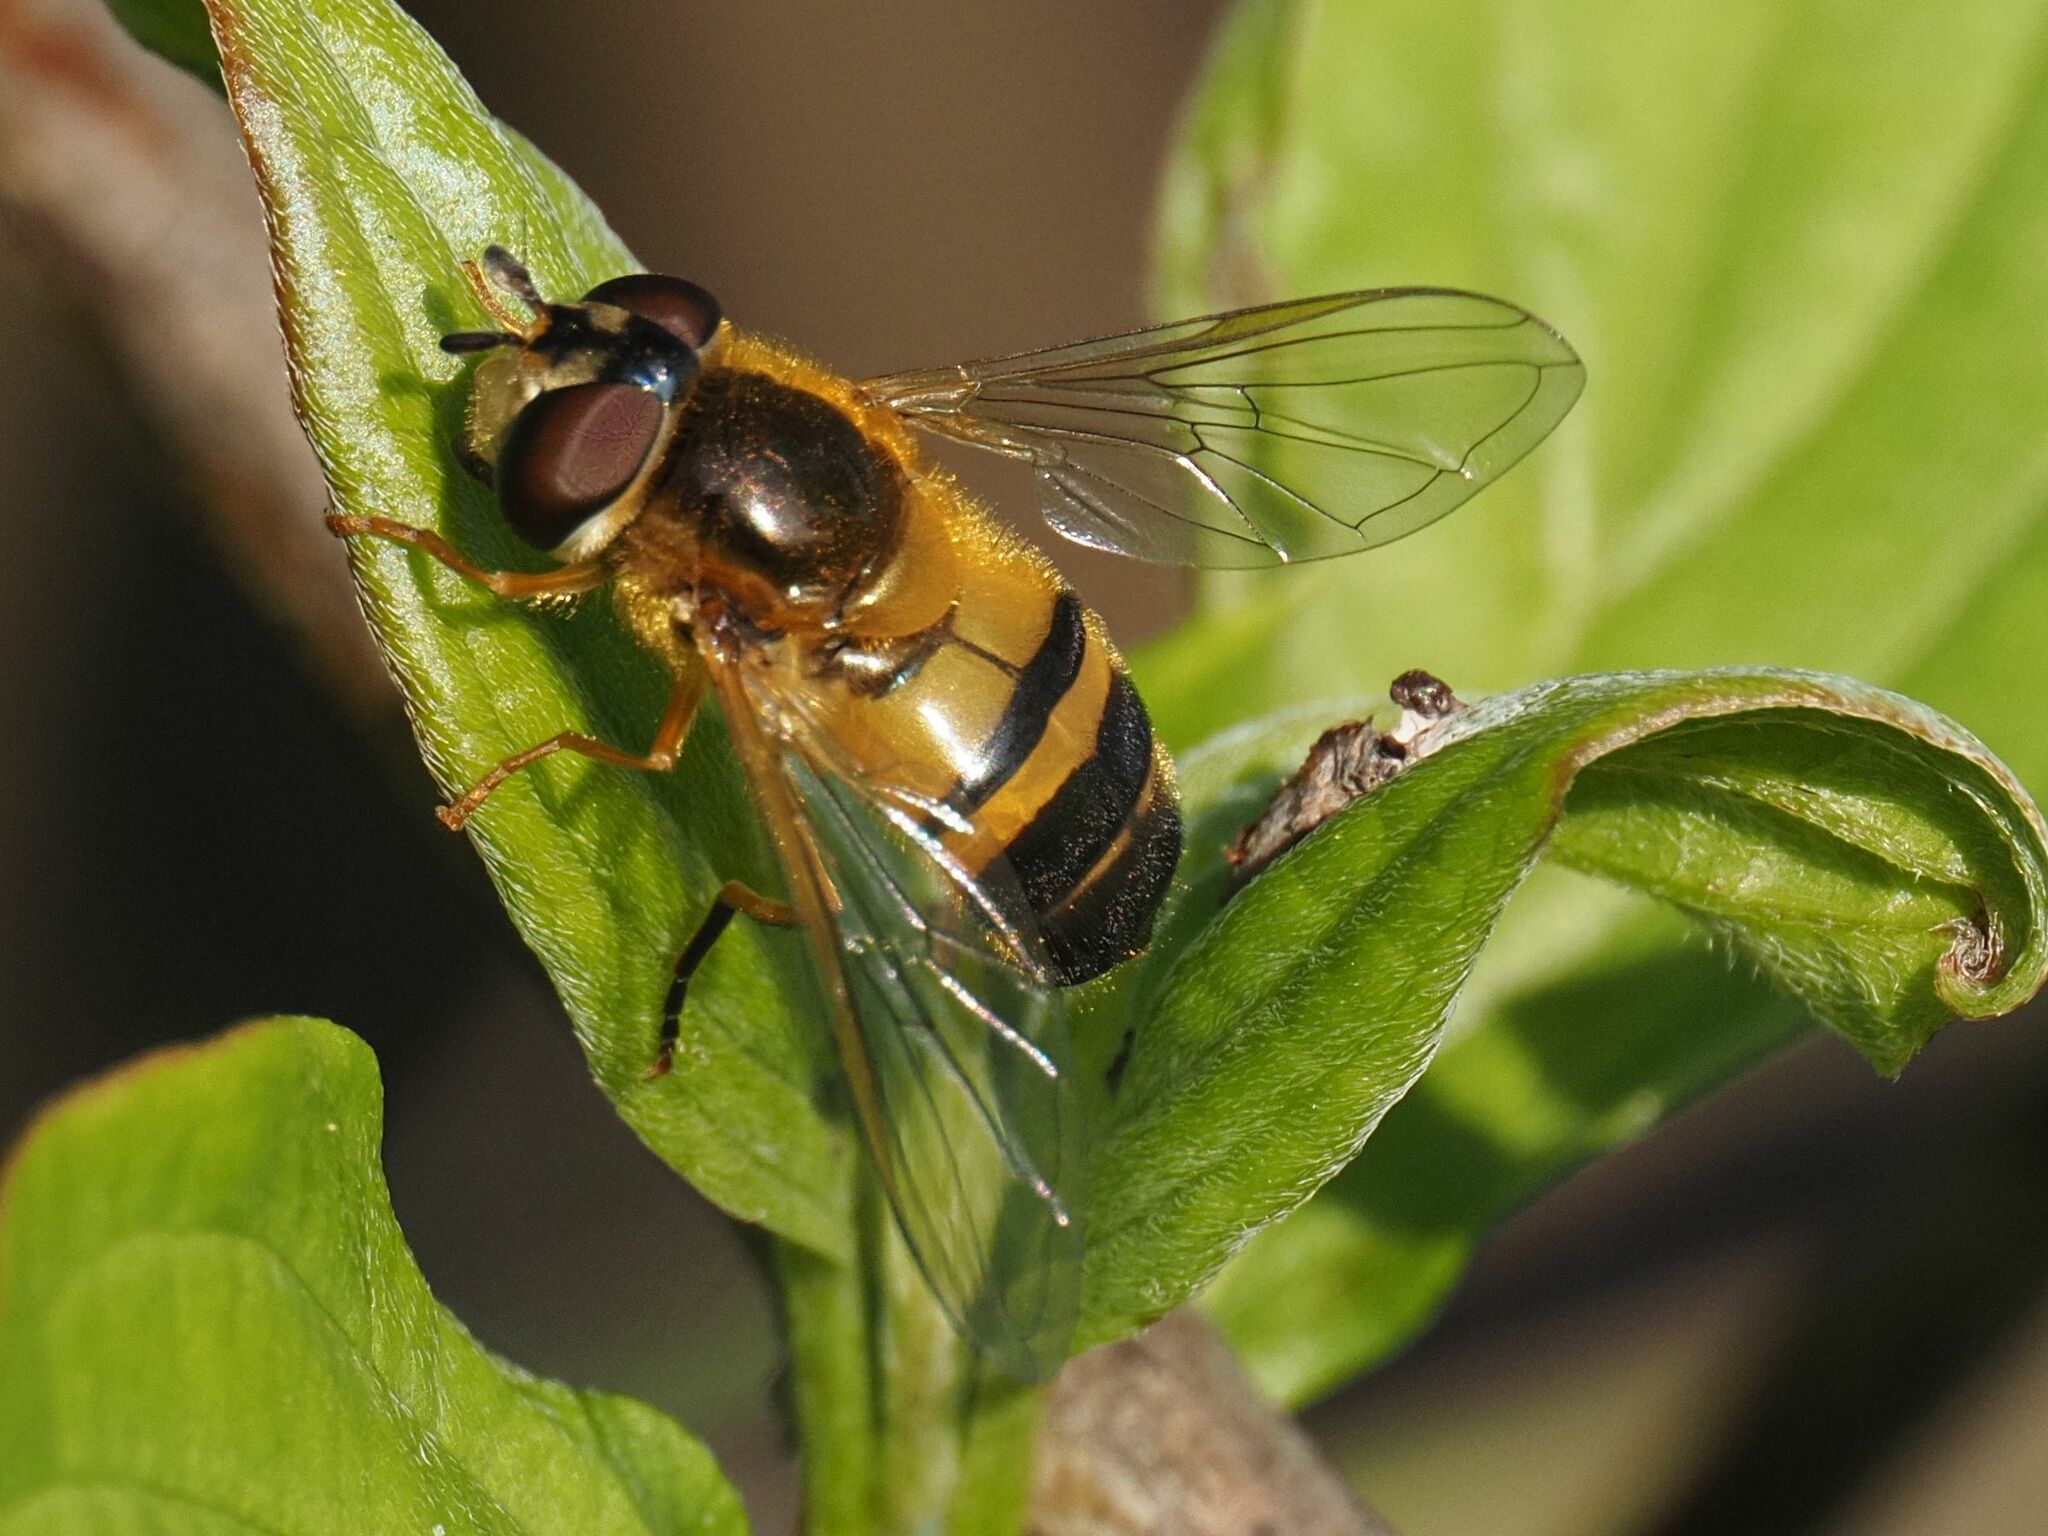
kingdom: Animalia
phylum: Arthropoda
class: Insecta
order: Diptera
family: Syrphidae
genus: Epistrophe
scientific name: Epistrophe eligans
